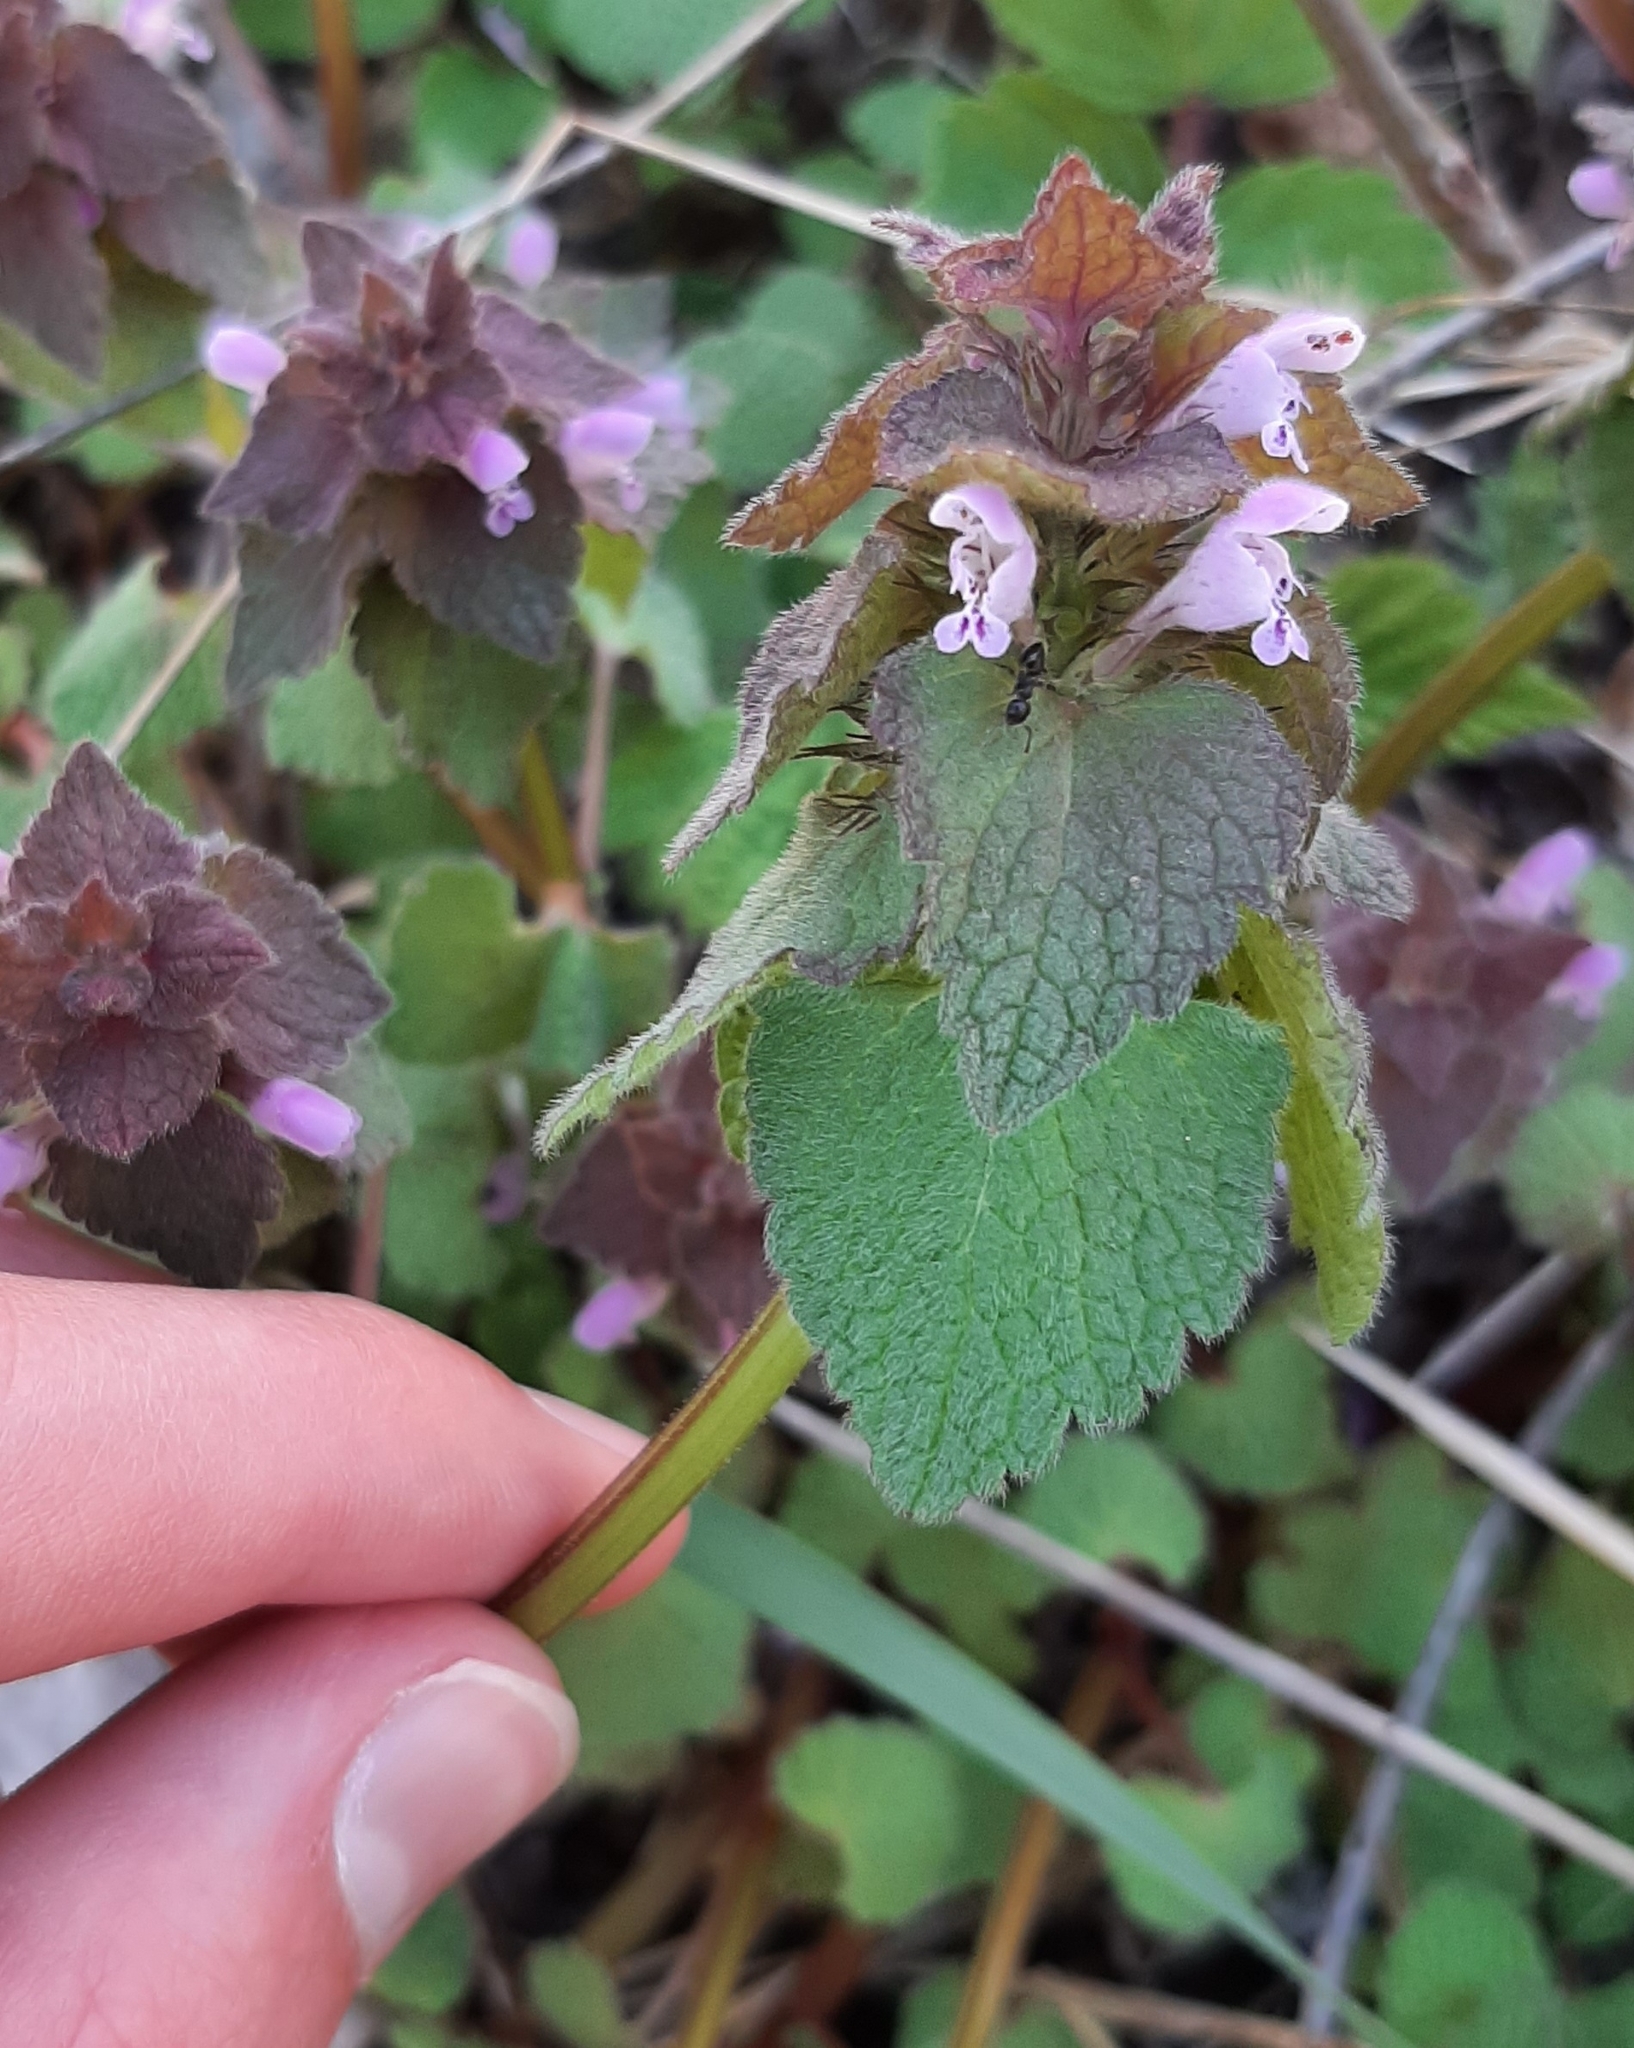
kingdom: Plantae
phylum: Tracheophyta
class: Magnoliopsida
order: Lamiales
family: Lamiaceae
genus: Lamium
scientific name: Lamium purpureum
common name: Red dead-nettle
